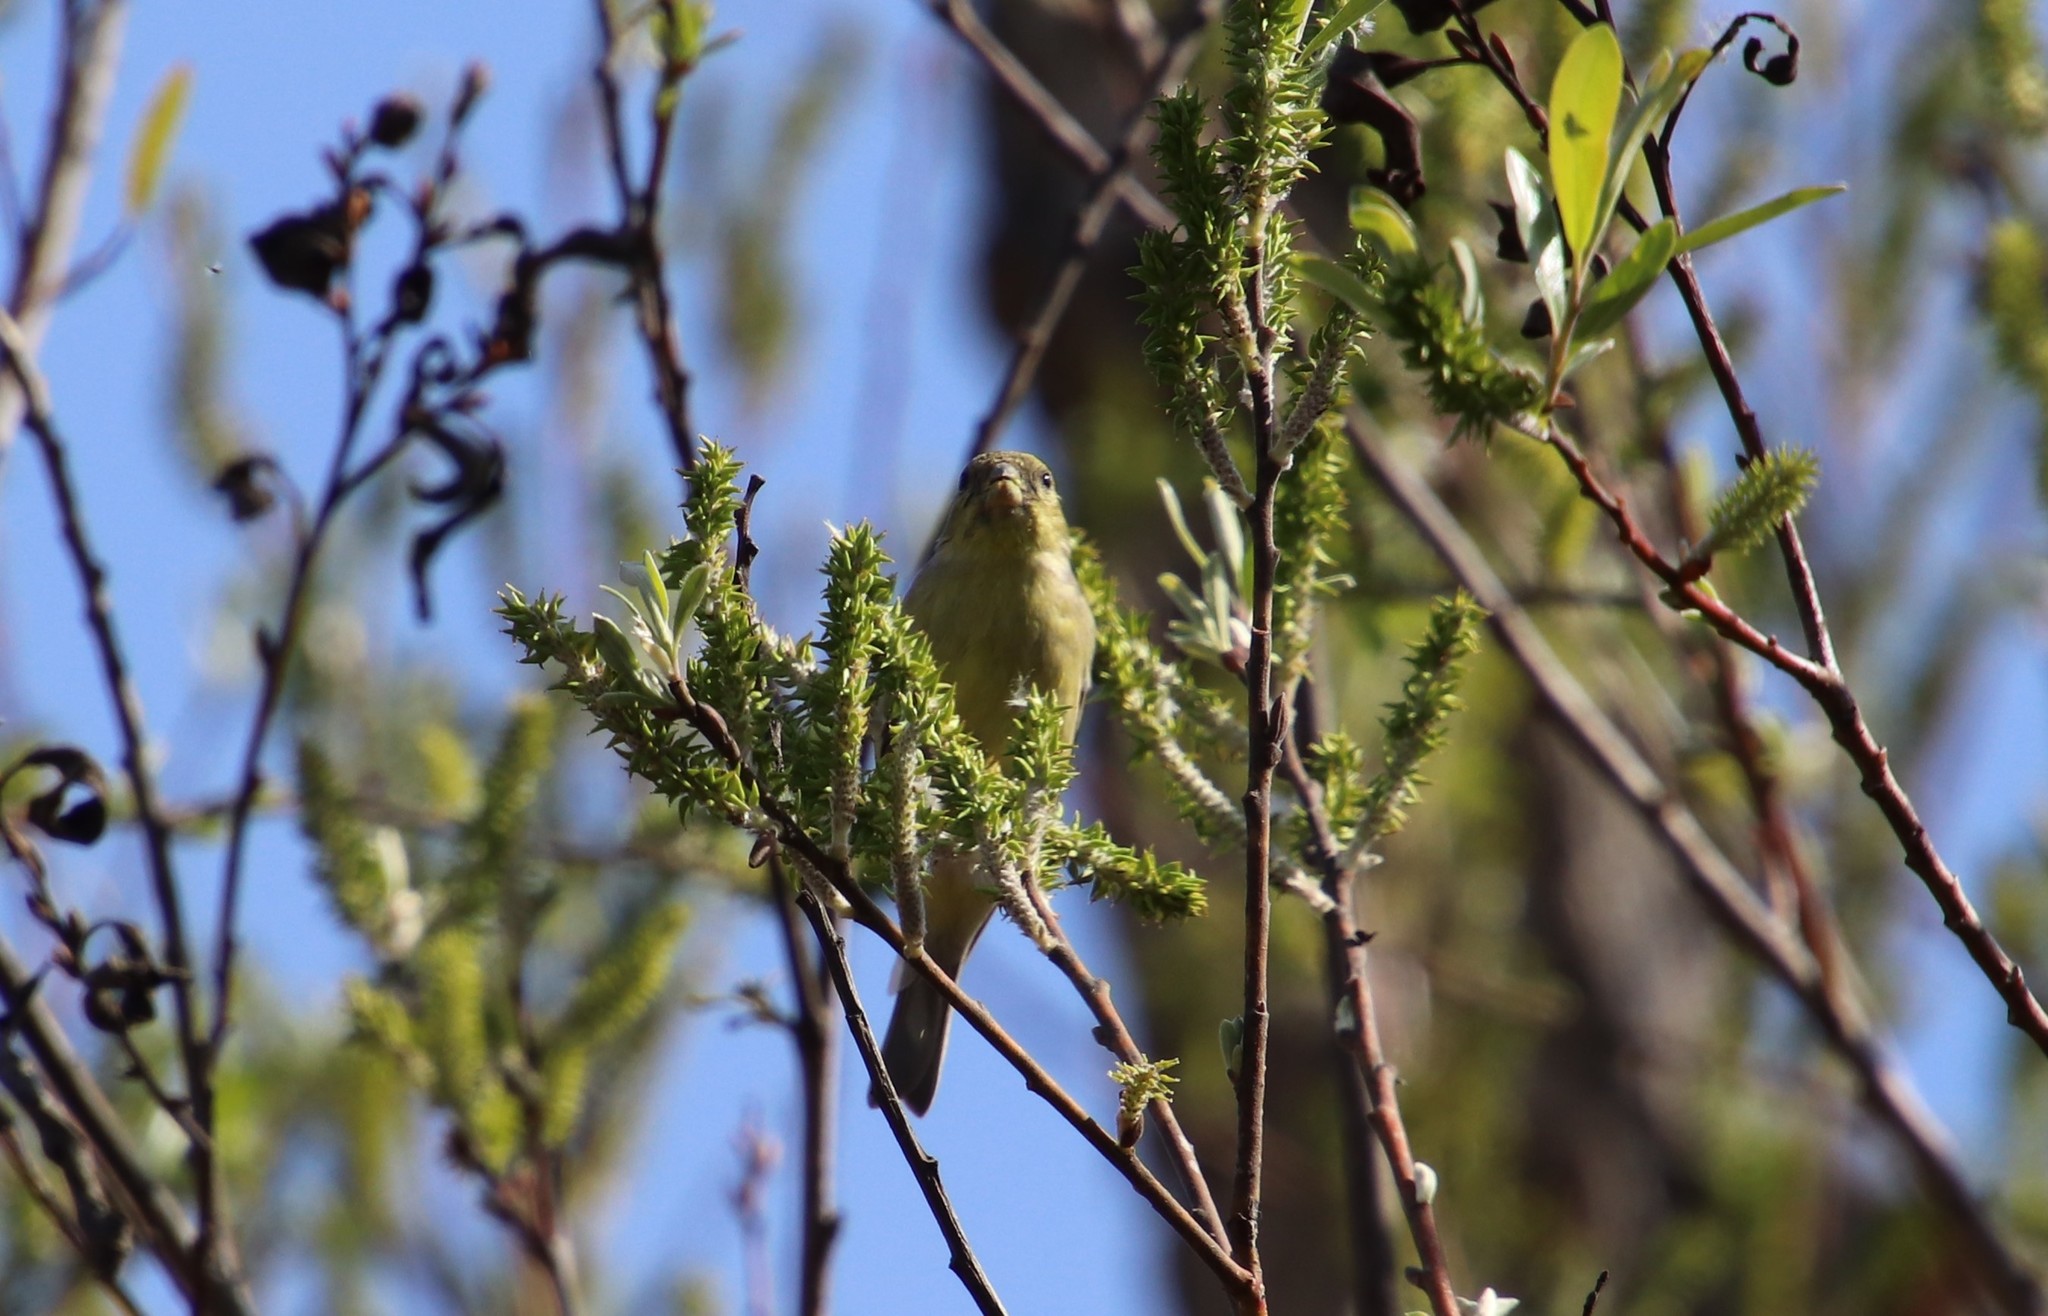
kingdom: Animalia
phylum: Chordata
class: Aves
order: Passeriformes
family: Fringillidae
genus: Spinus
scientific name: Spinus psaltria
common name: Lesser goldfinch
